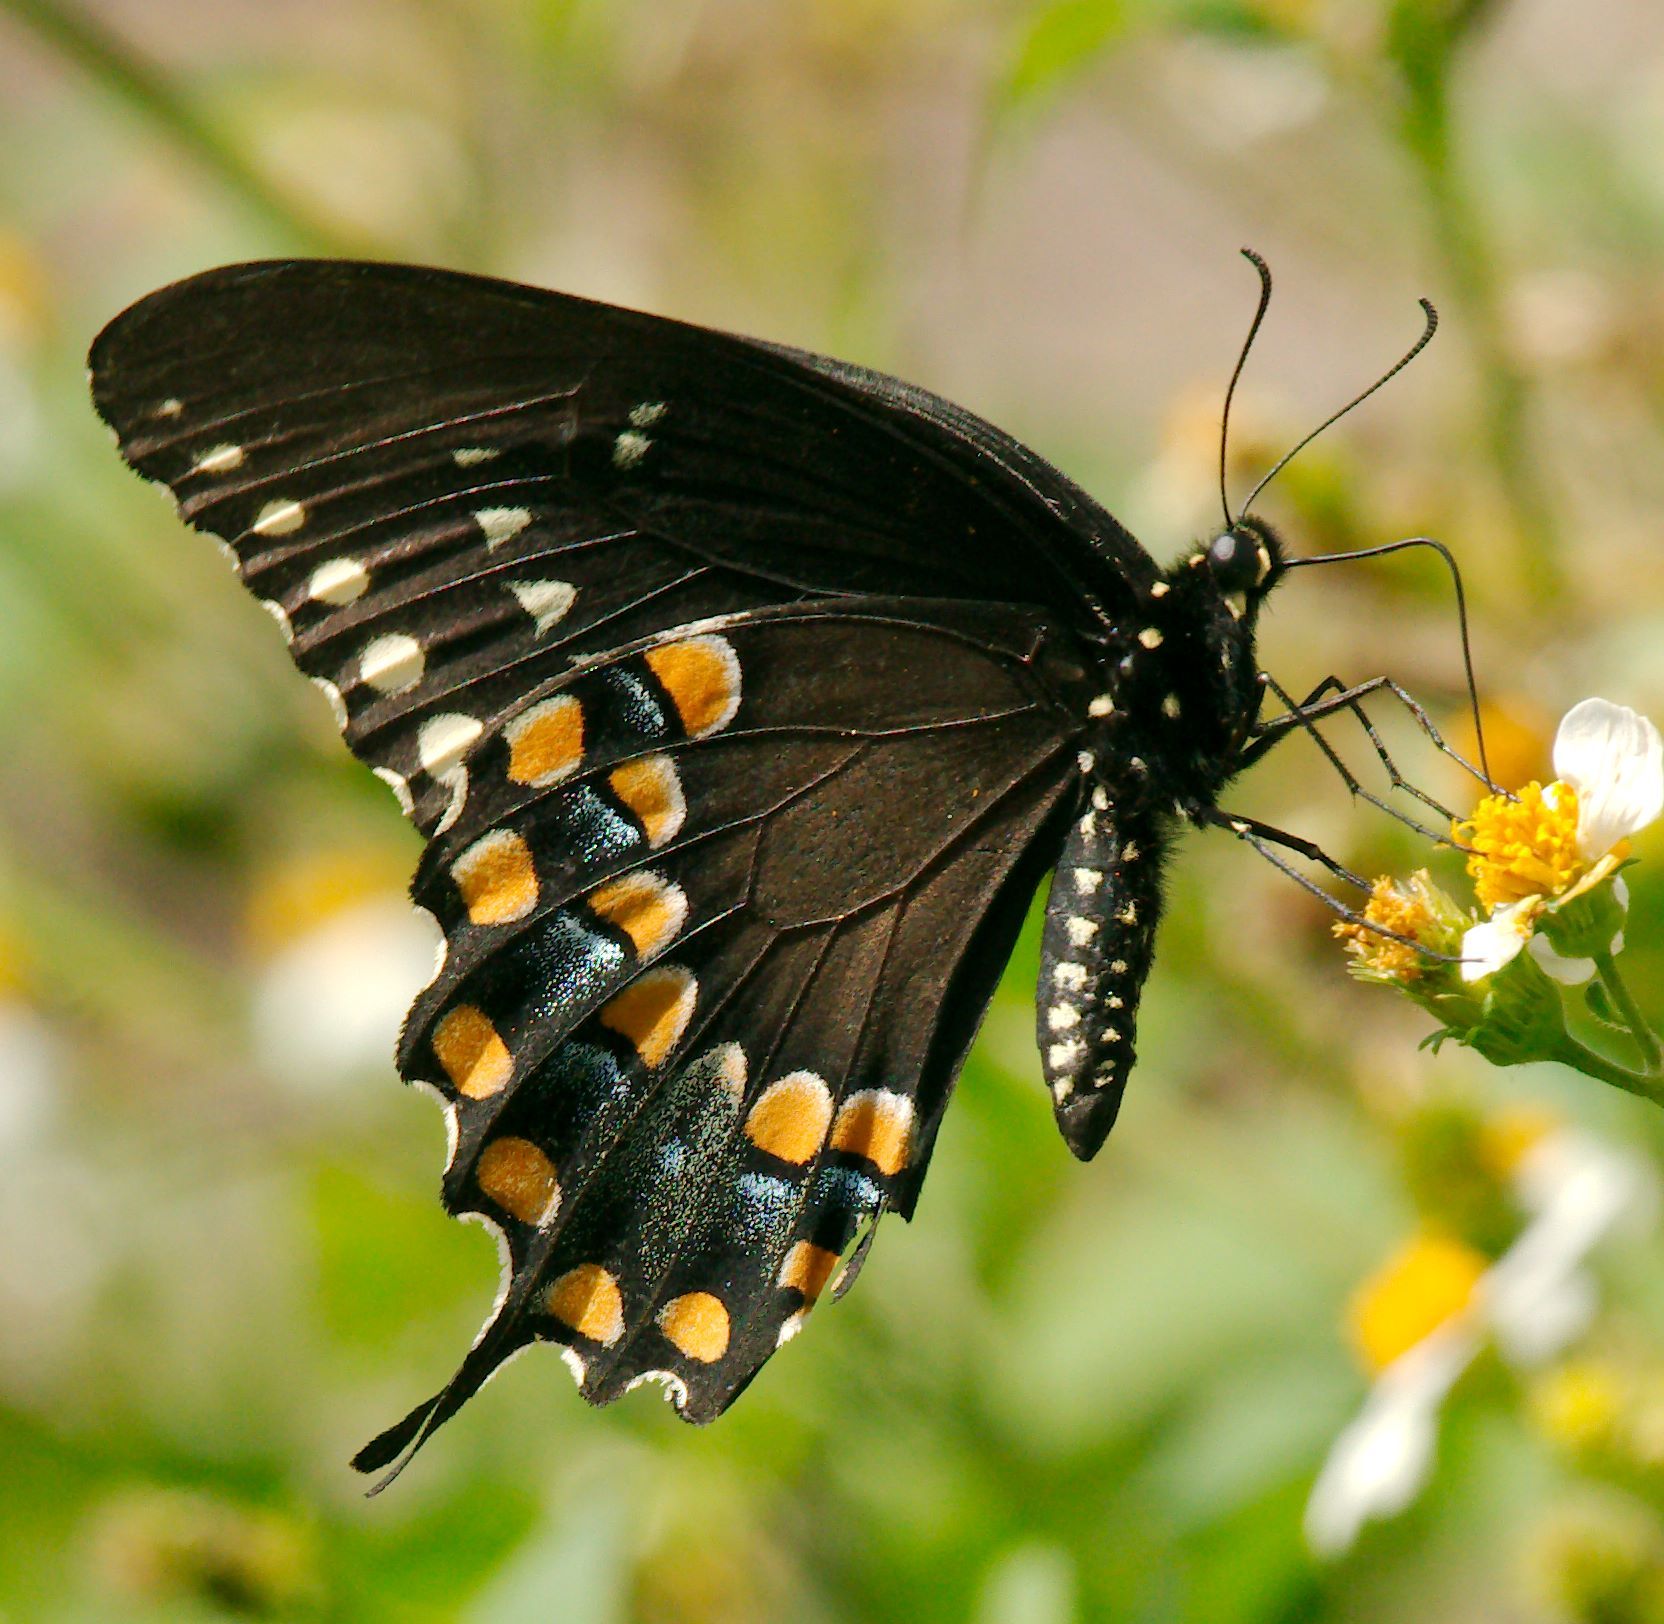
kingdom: Animalia
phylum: Arthropoda
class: Insecta
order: Lepidoptera
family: Papilionidae
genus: Papilio
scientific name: Papilio troilus
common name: Spicebush swallowtail
